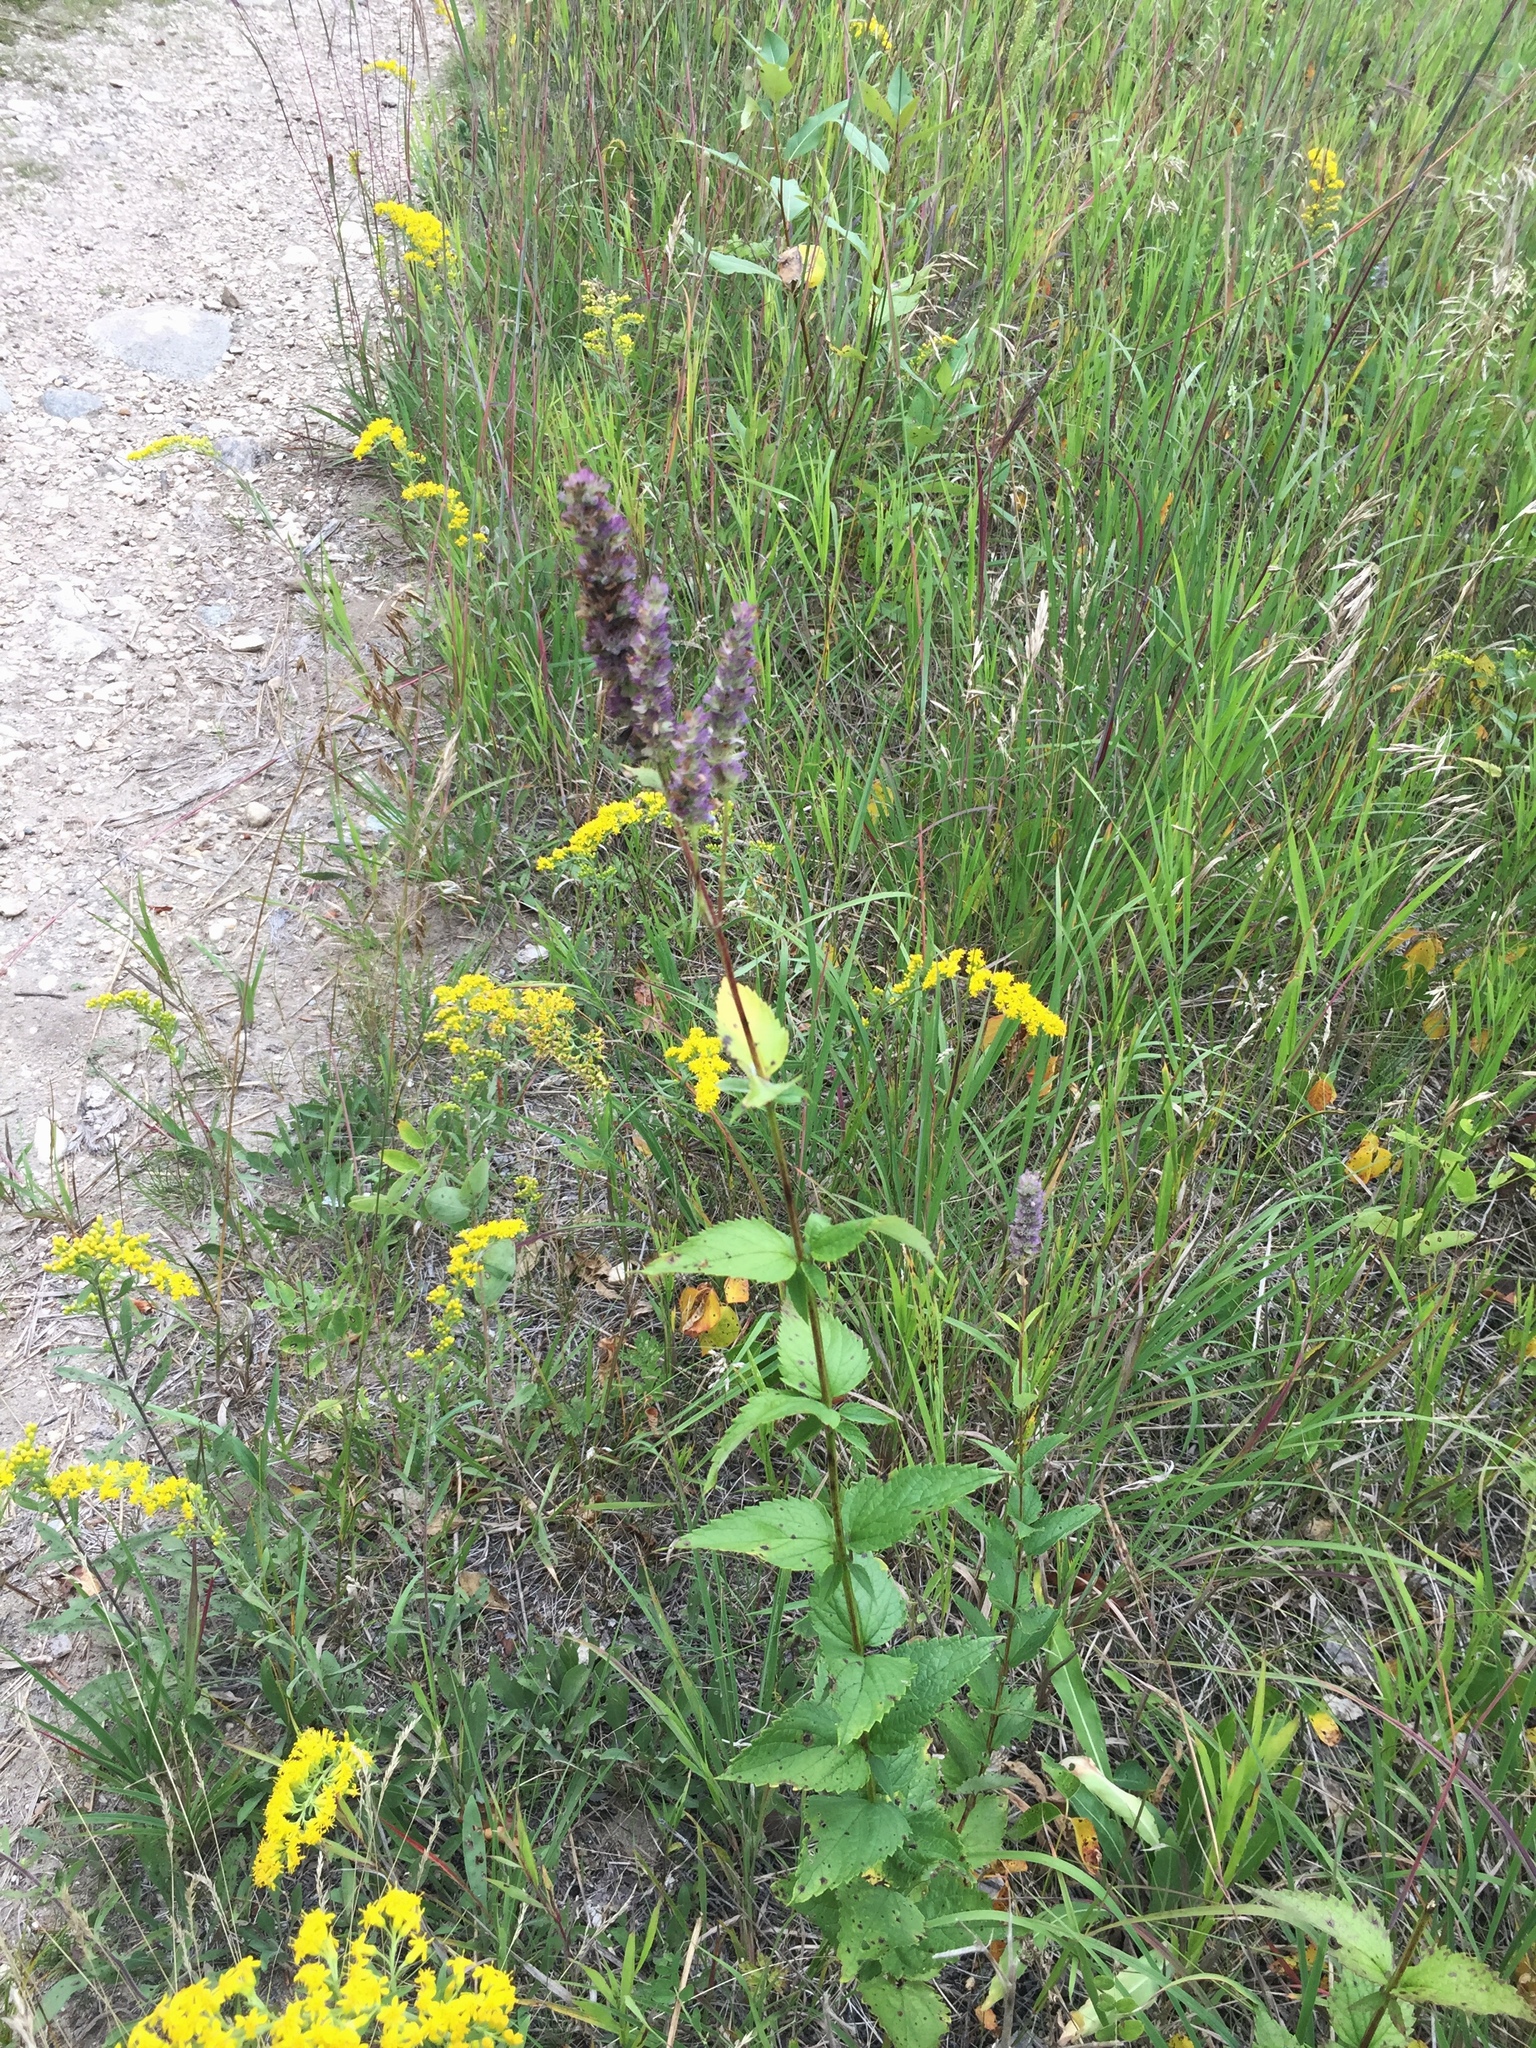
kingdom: Plantae
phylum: Tracheophyta
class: Magnoliopsida
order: Lamiales
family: Lamiaceae
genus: Agastache
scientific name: Agastache foeniculum
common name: Anise hyssop
